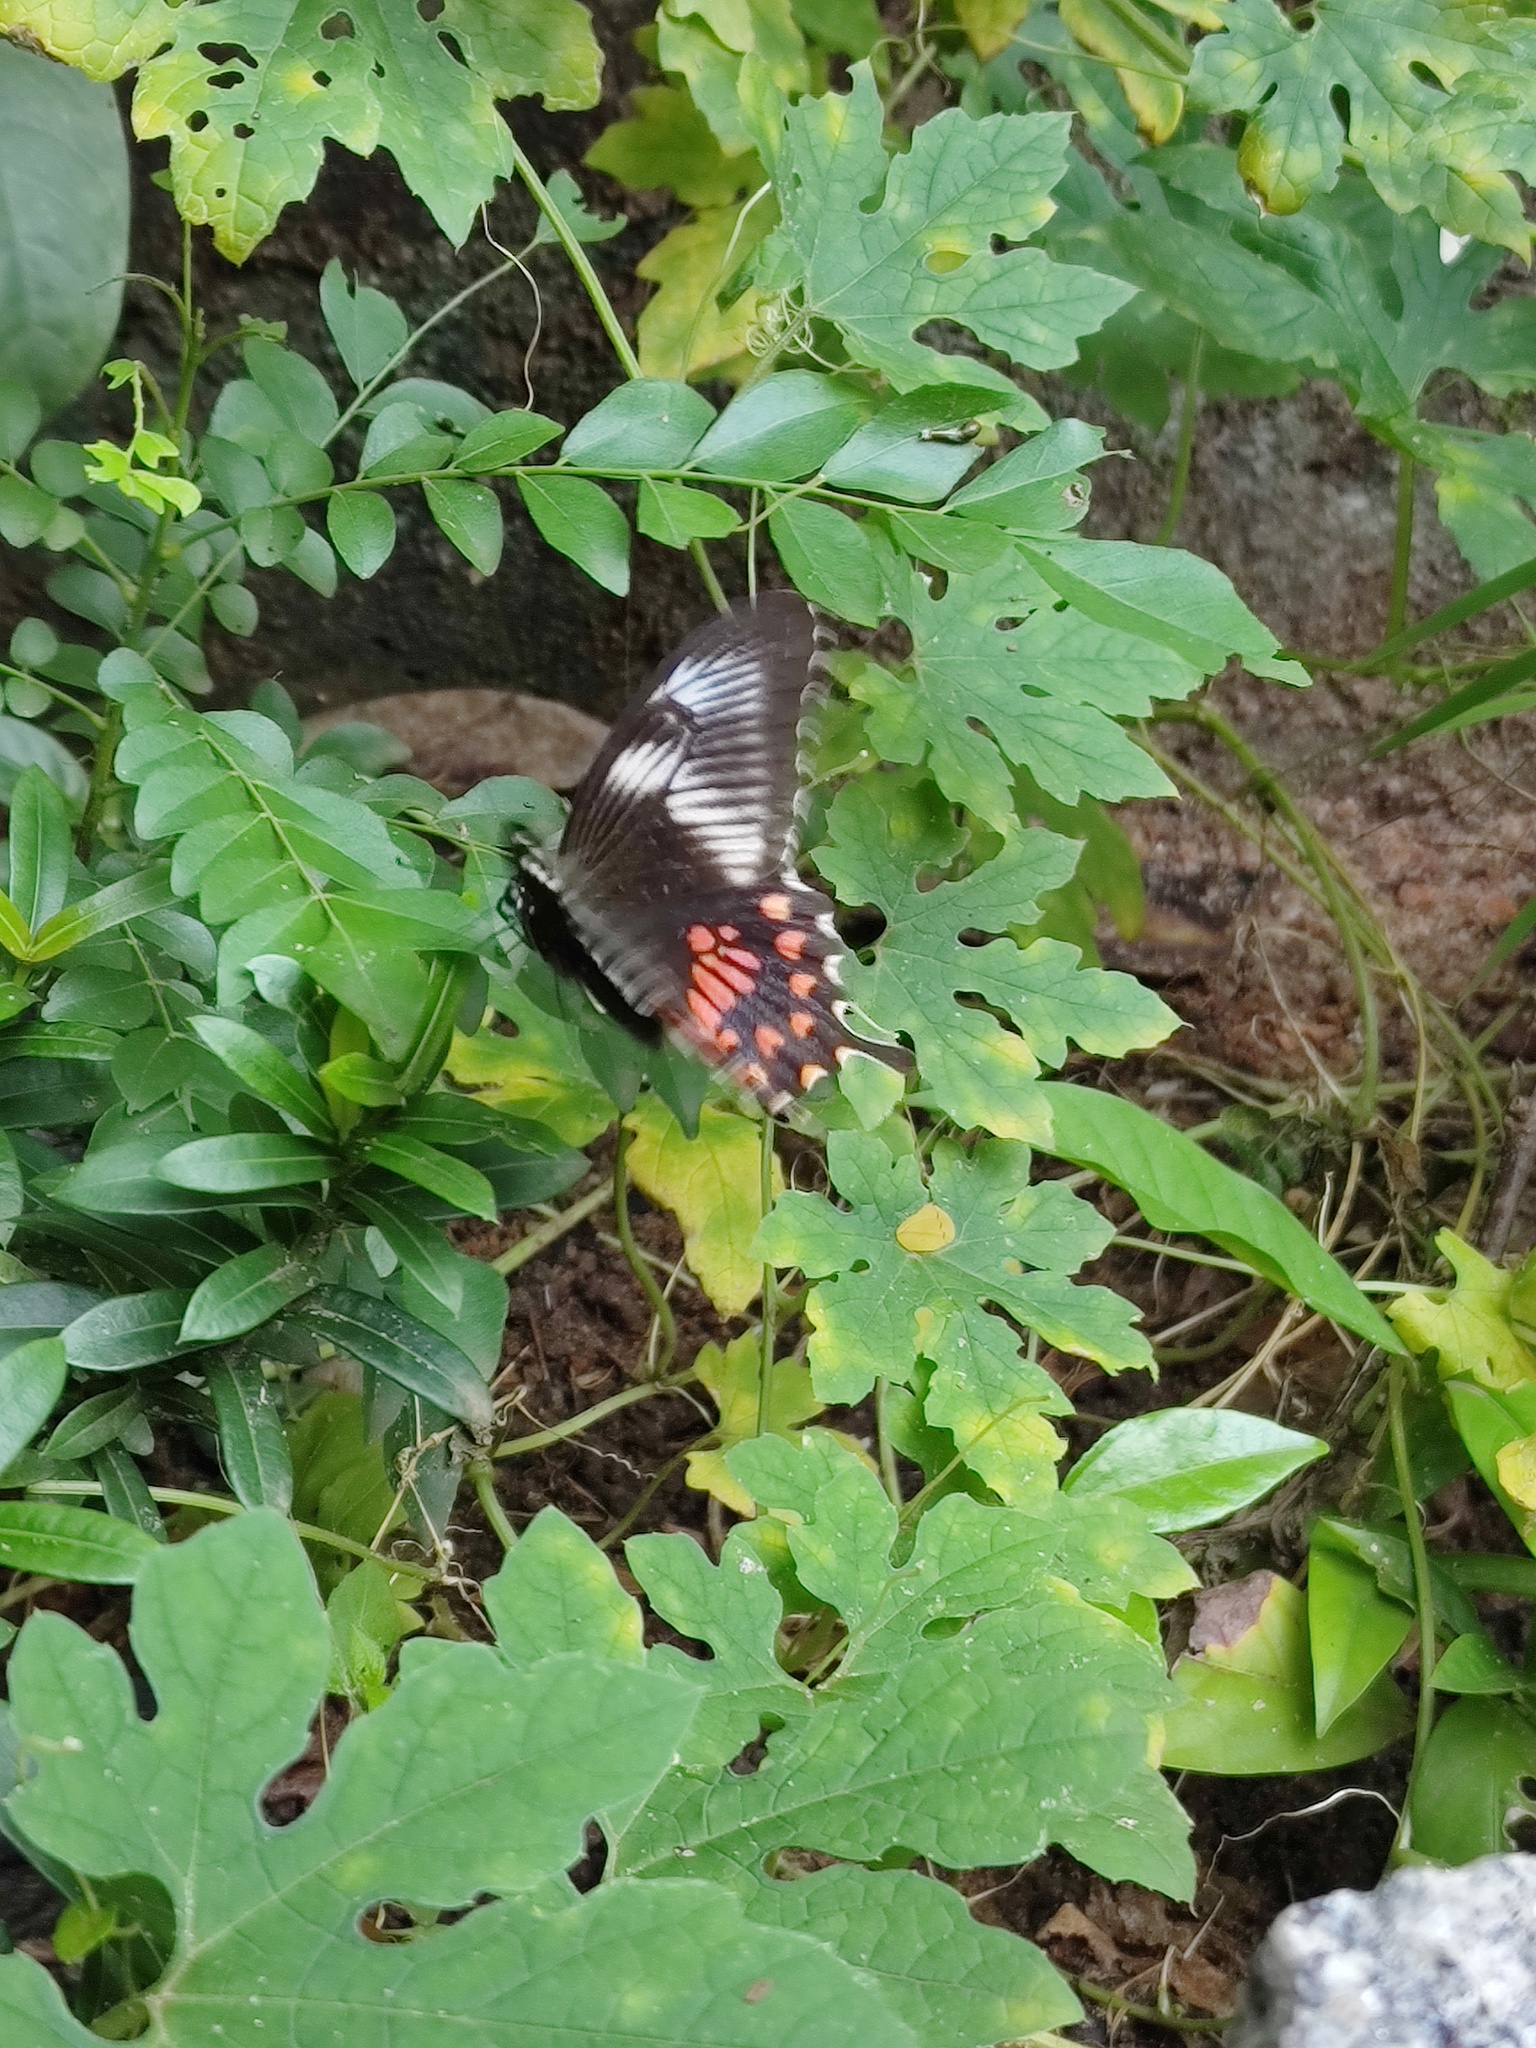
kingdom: Animalia
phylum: Arthropoda
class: Insecta
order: Lepidoptera
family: Papilionidae
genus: Papilio
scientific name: Papilio polytes
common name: Common mormon
